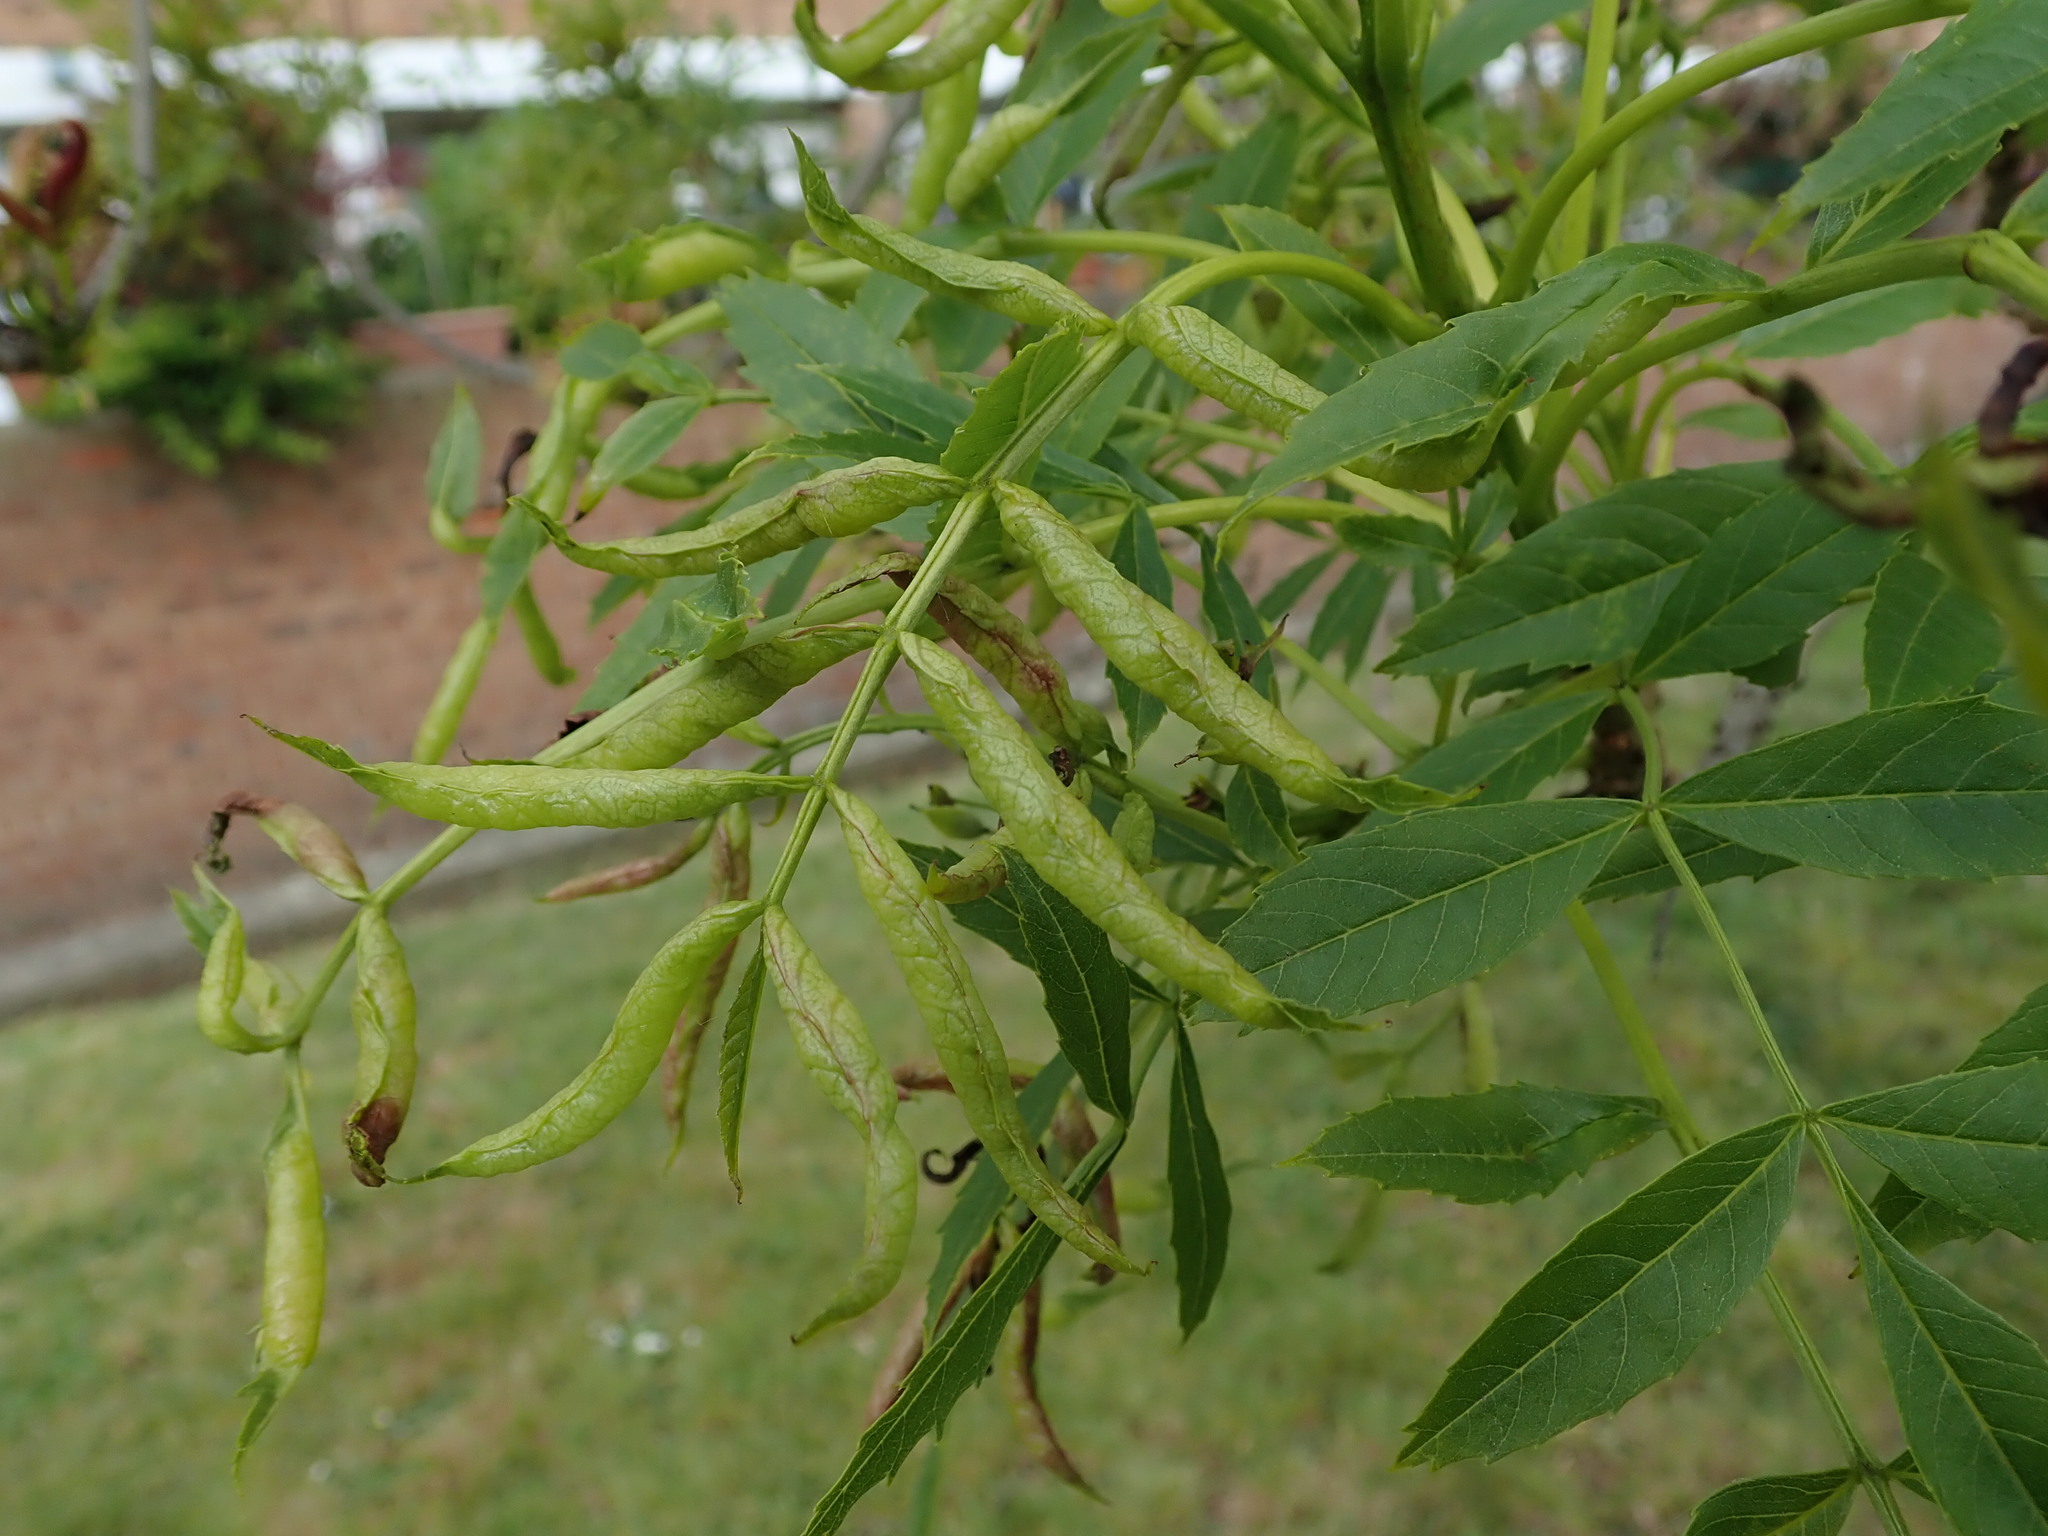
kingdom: Animalia
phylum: Arthropoda
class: Insecta
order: Diptera
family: Cecidomyiidae
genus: Dasineura
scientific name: Dasineura acrophila
